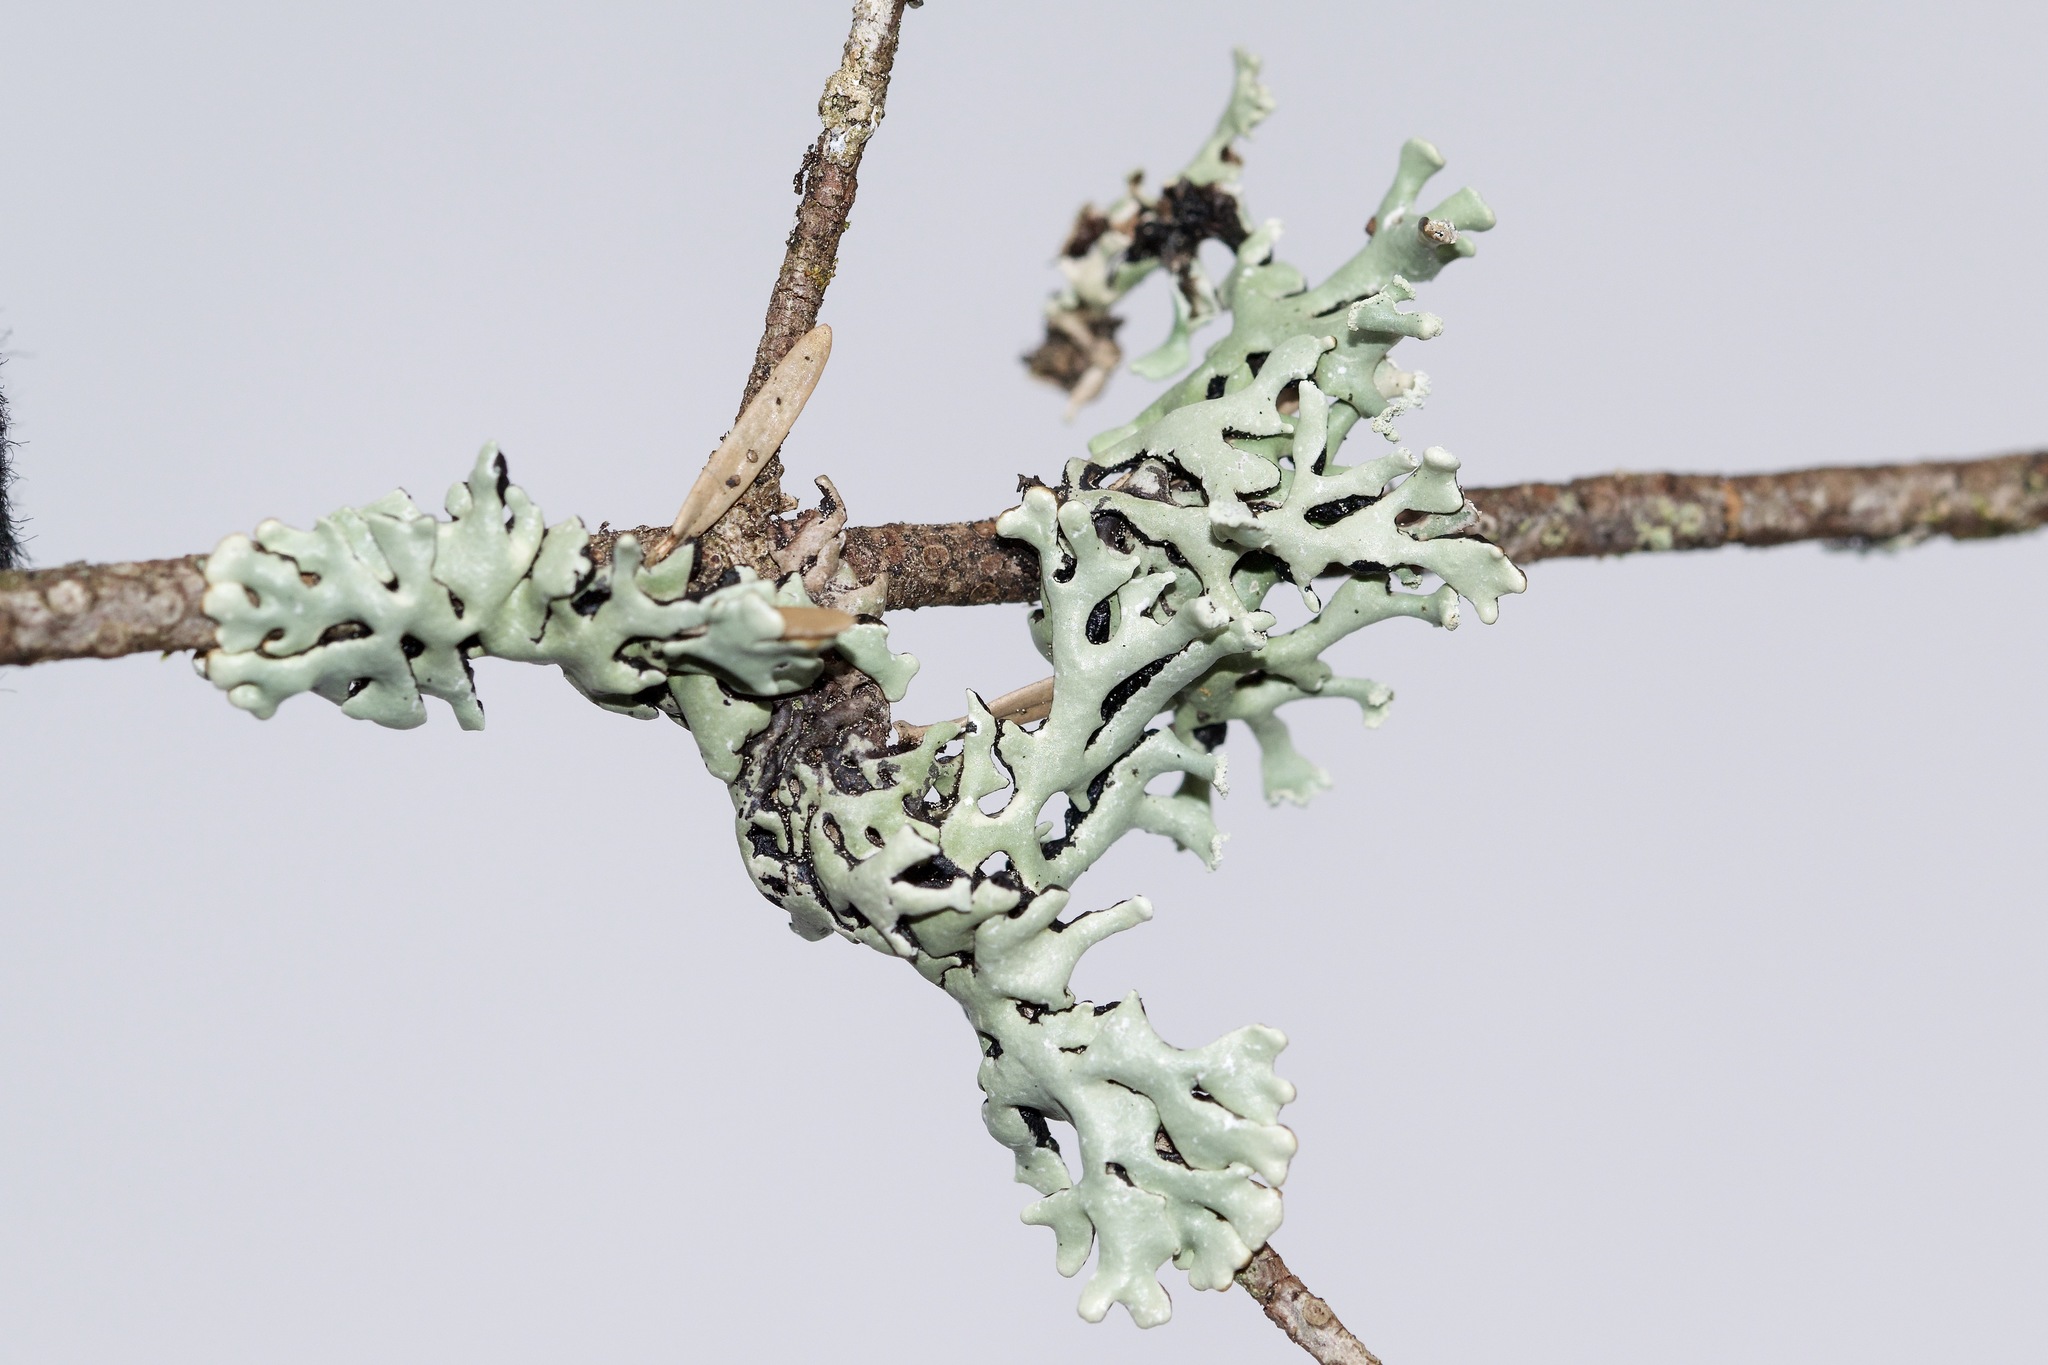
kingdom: Fungi
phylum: Ascomycota
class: Lecanoromycetes
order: Lecanorales
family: Parmeliaceae
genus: Hypogymnia
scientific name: Hypogymnia physodes
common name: Dark crottle
